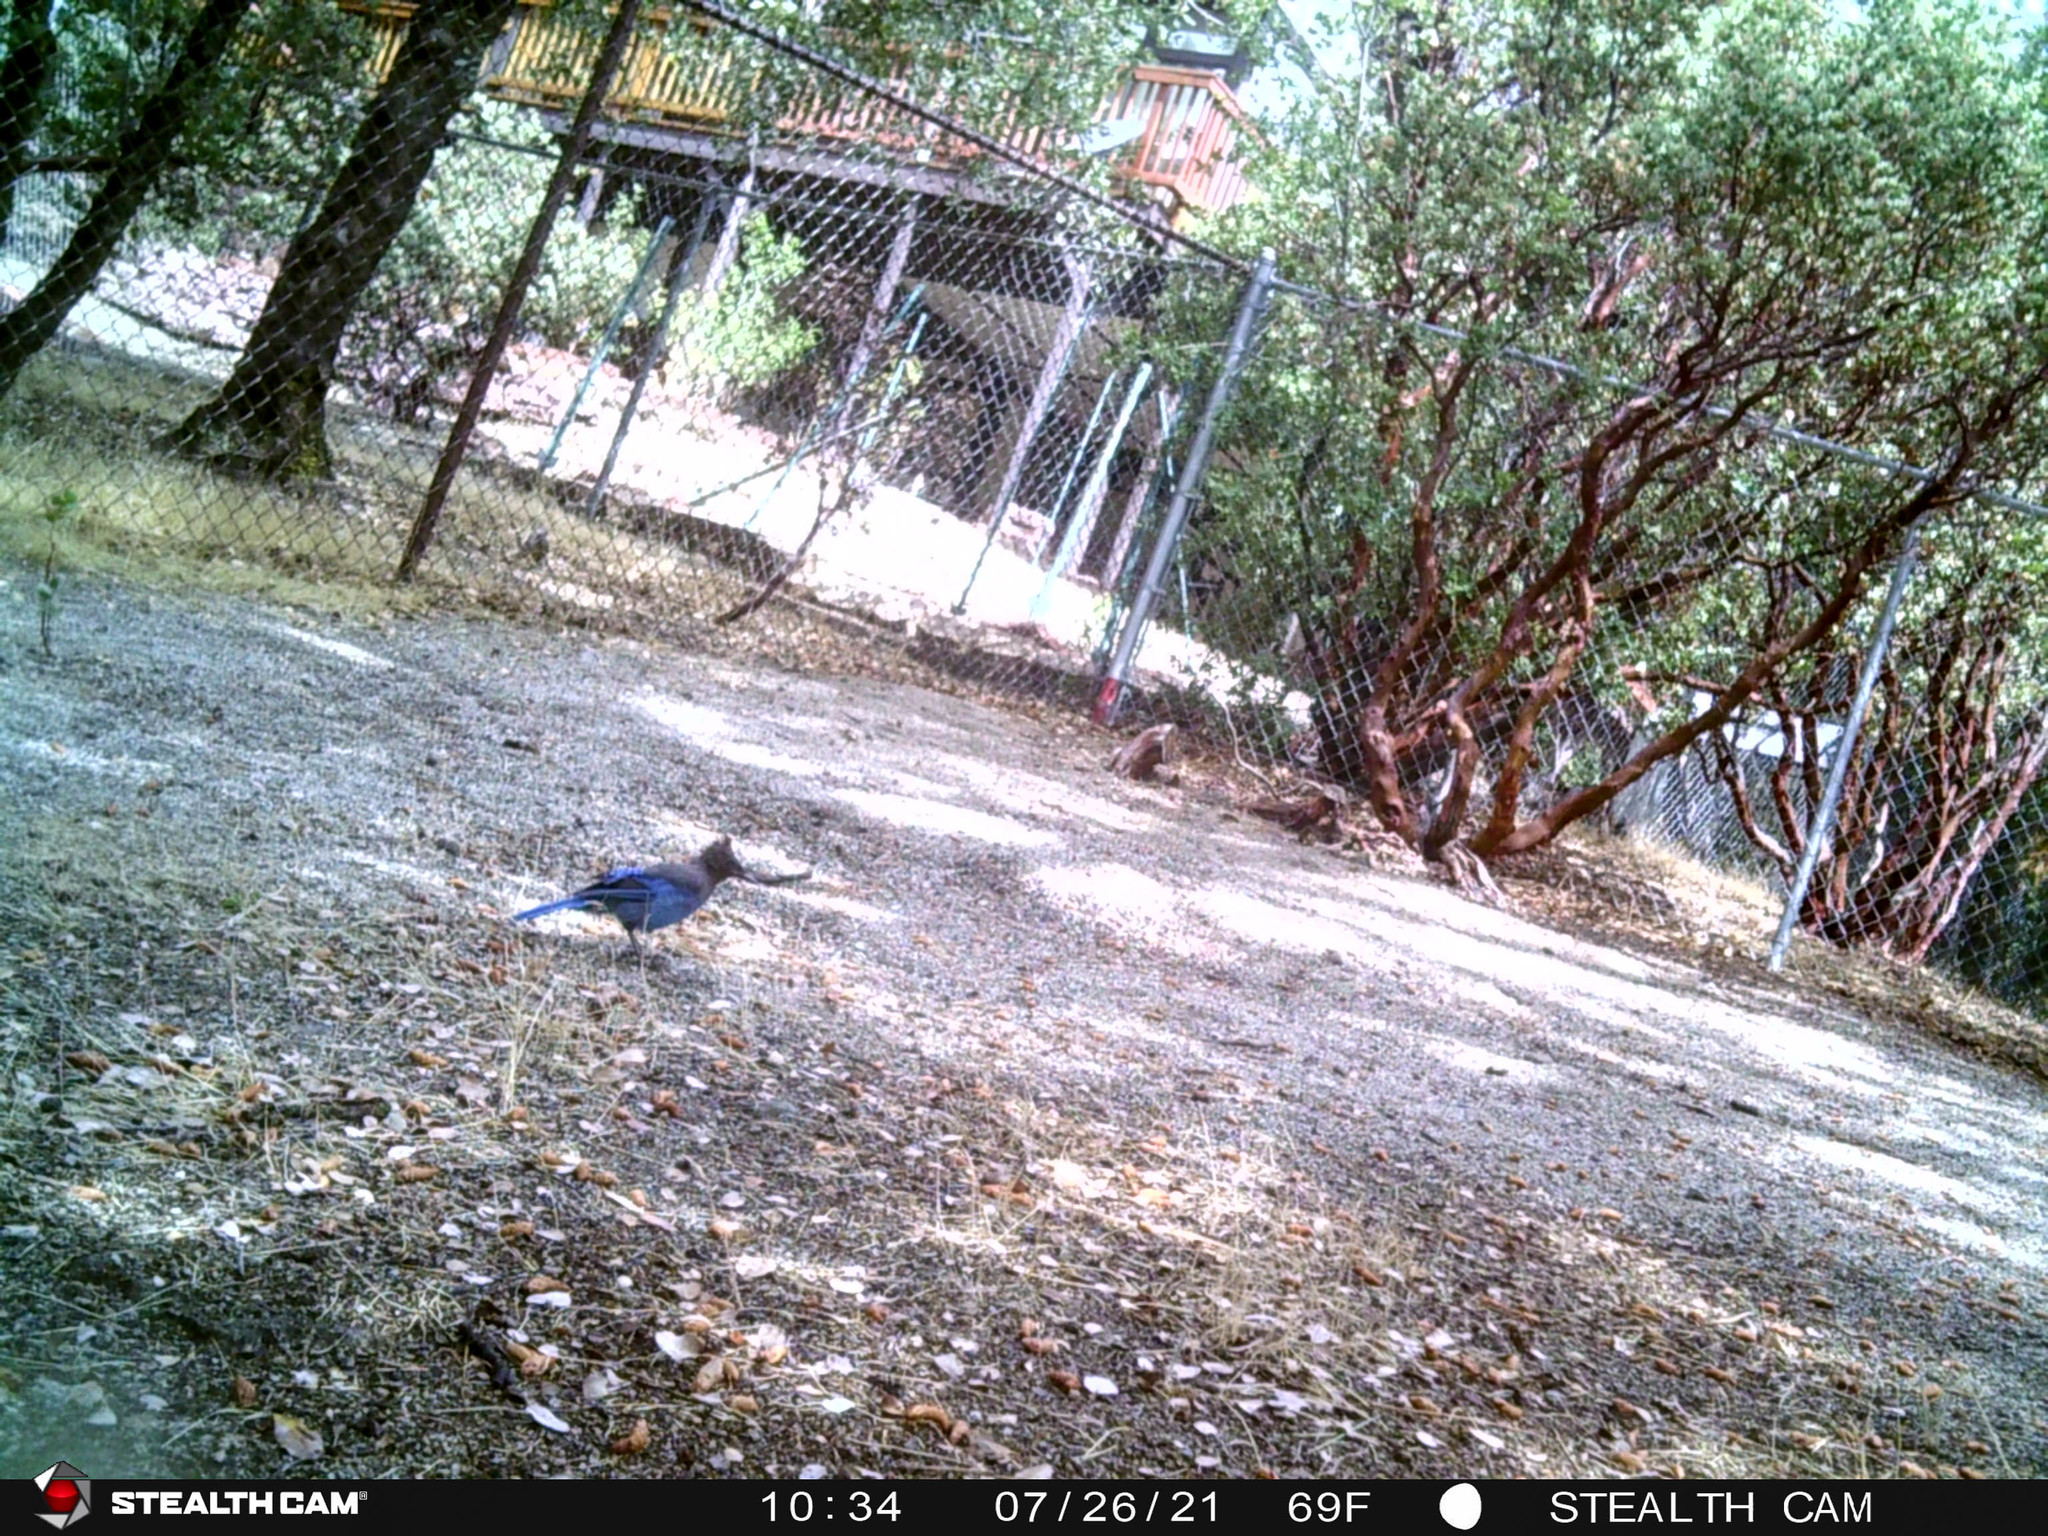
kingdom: Animalia
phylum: Chordata
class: Aves
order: Passeriformes
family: Corvidae
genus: Cyanocitta
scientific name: Cyanocitta stelleri
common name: Steller's jay
